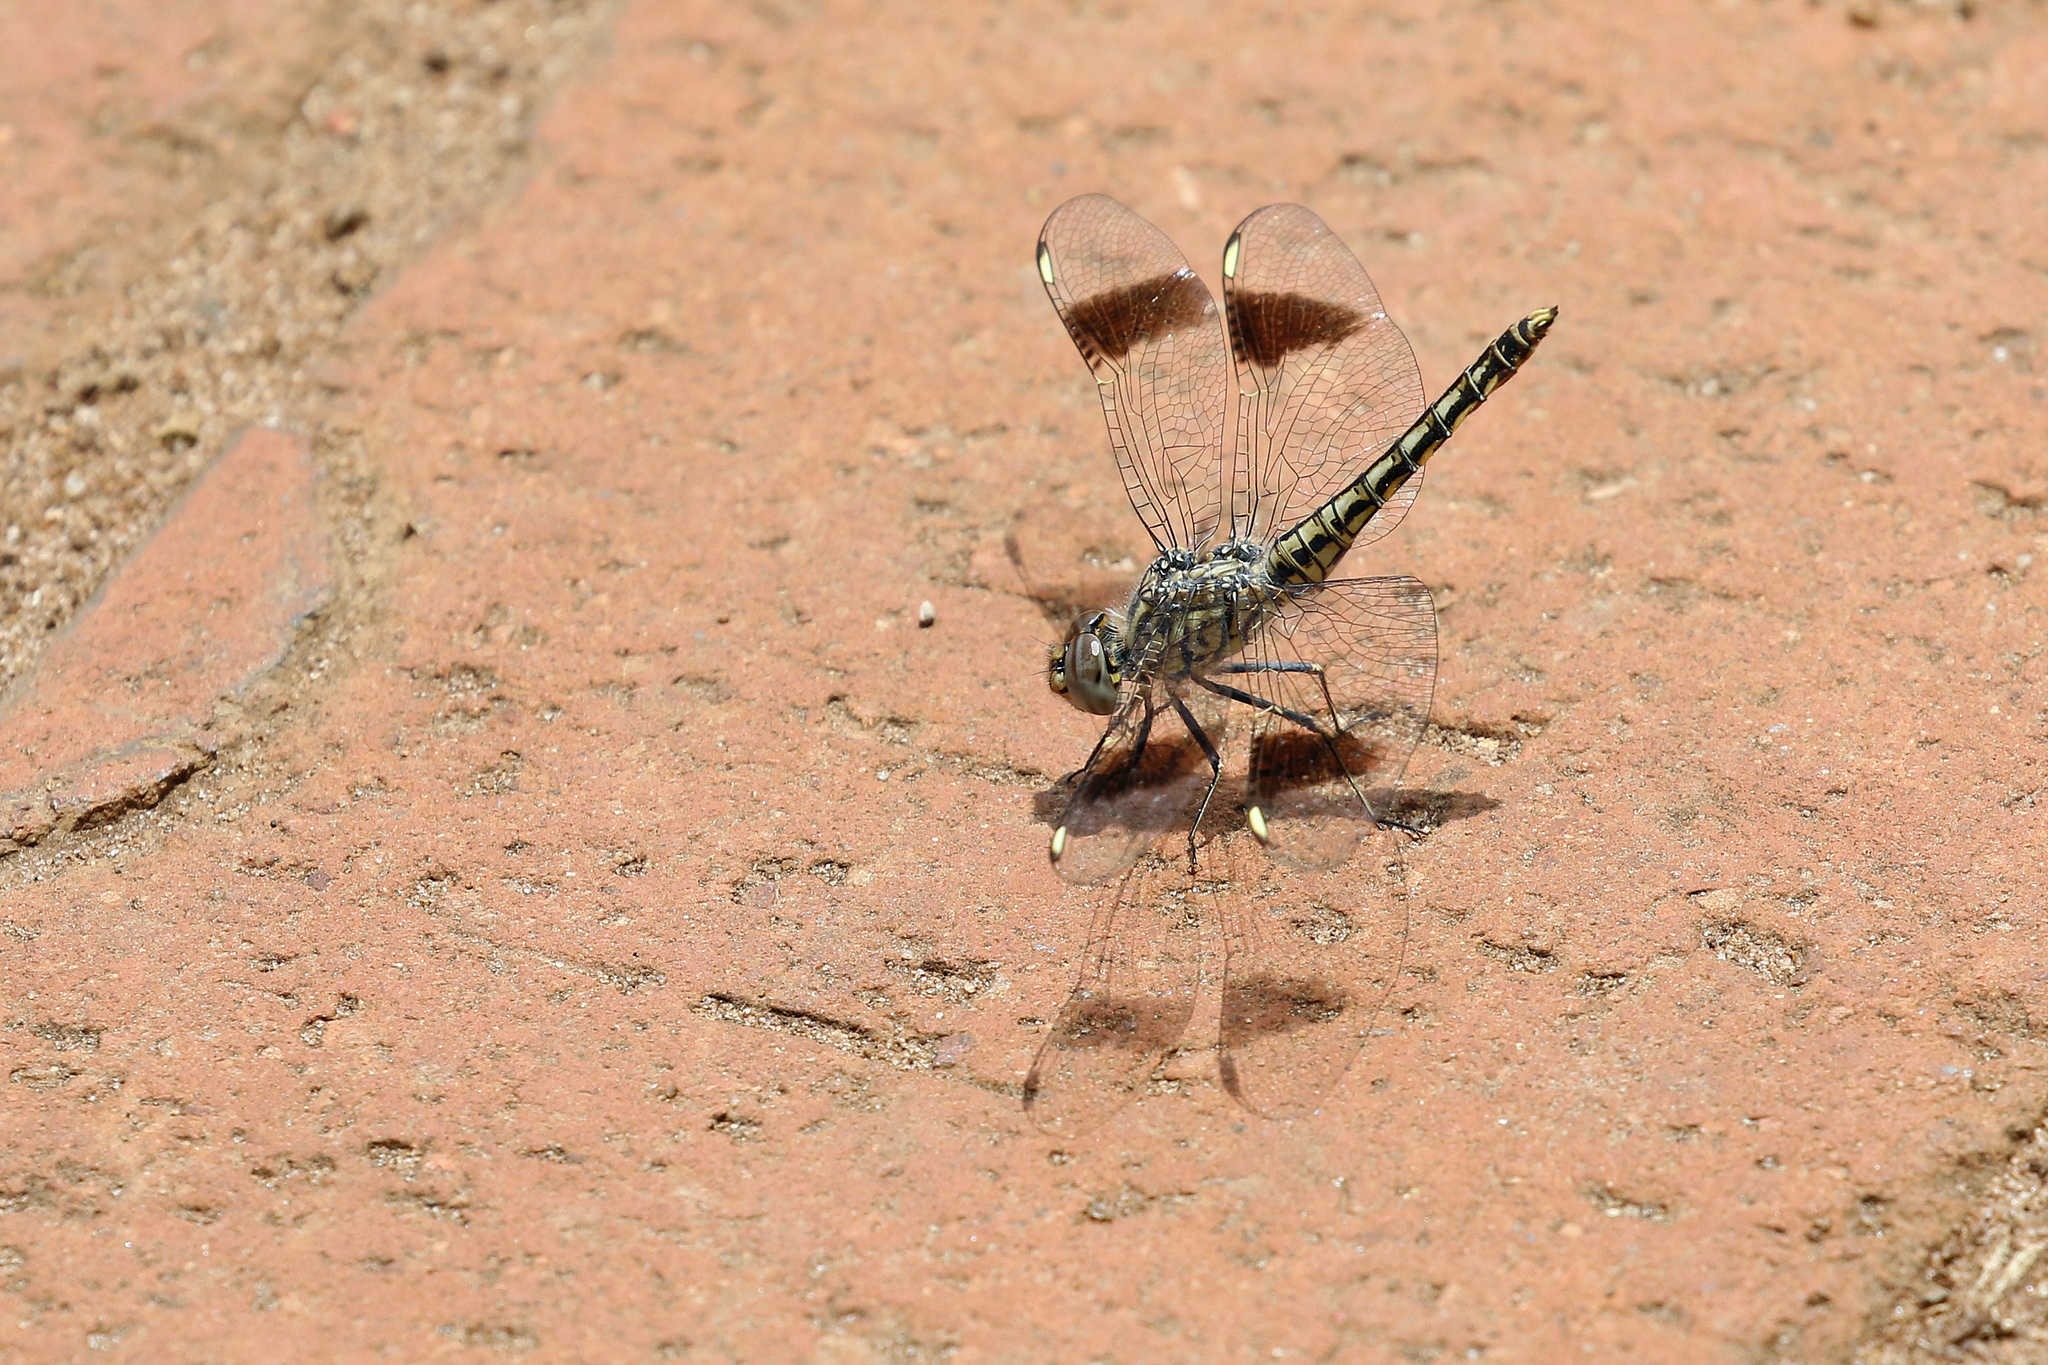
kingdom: Animalia
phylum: Arthropoda
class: Insecta
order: Odonata
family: Libellulidae
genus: Brachythemis
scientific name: Brachythemis leucosticta
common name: Banded groundling
